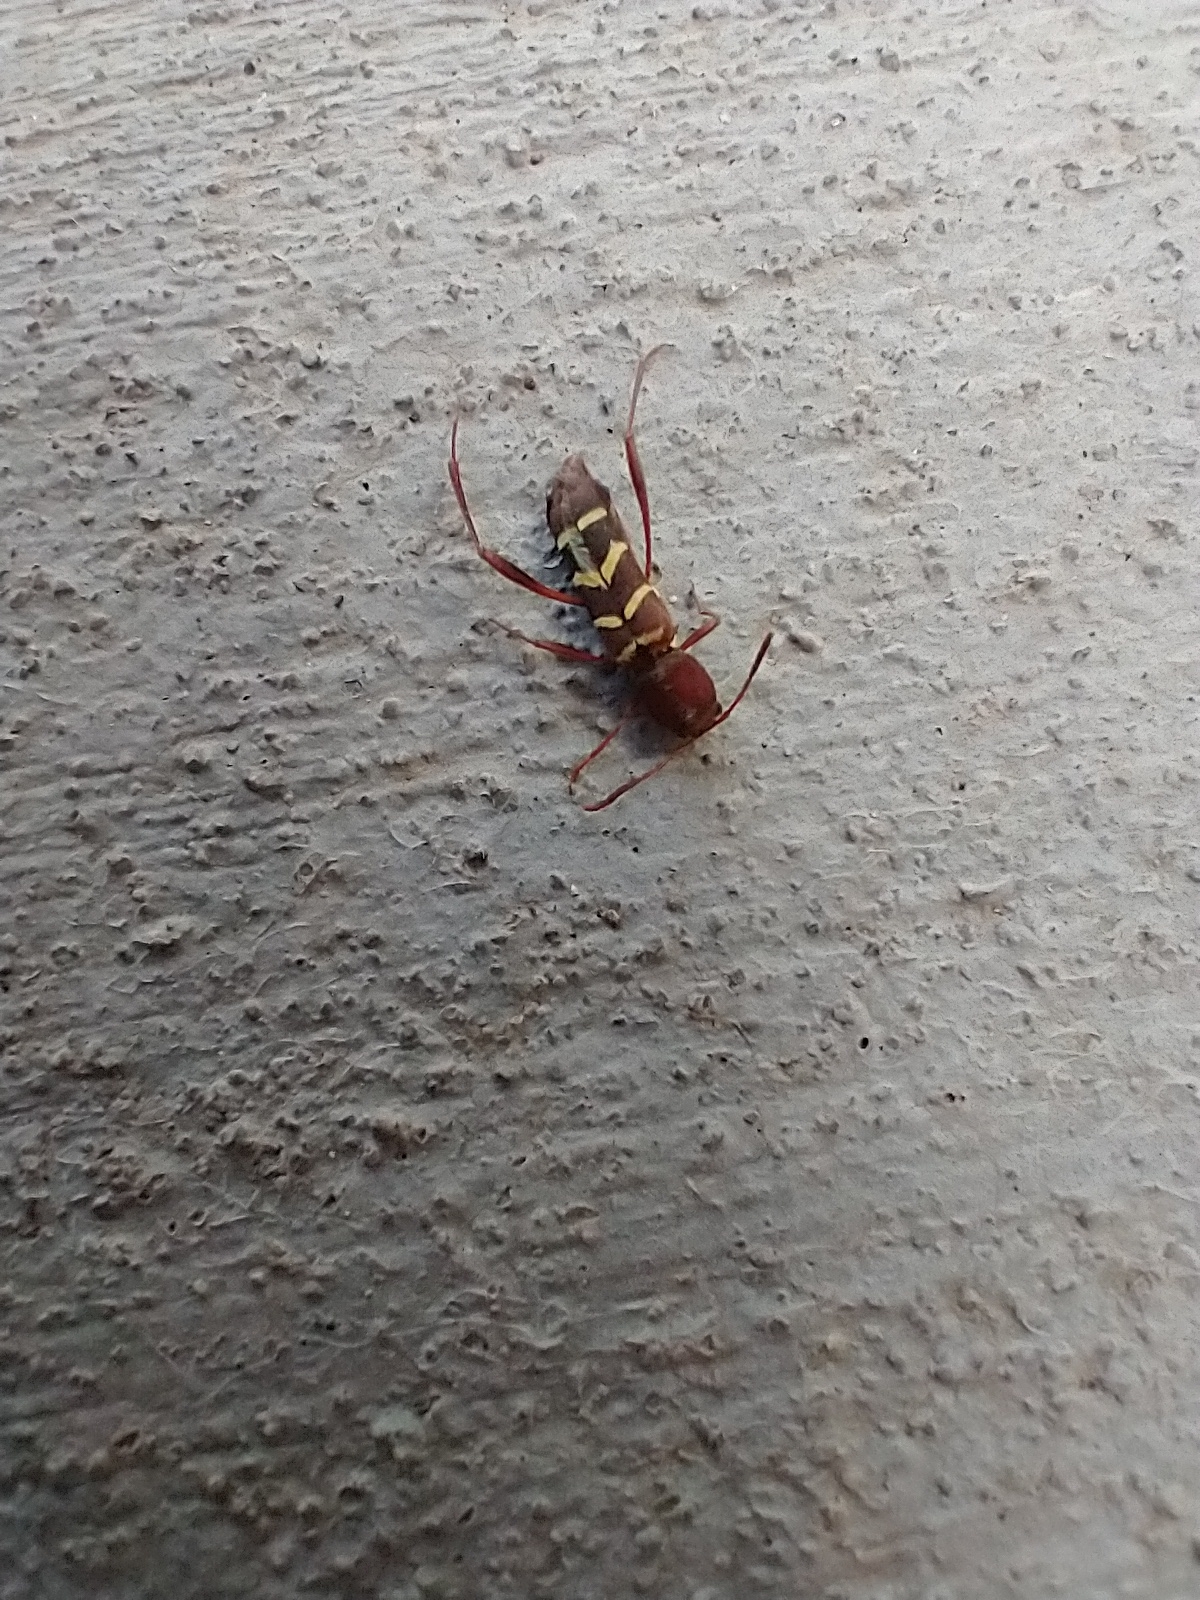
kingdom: Animalia
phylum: Arthropoda
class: Insecta
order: Coleoptera
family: Cerambycidae
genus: Neoclytus
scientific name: Neoclytus acuminatus
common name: Read-headed ash borer
